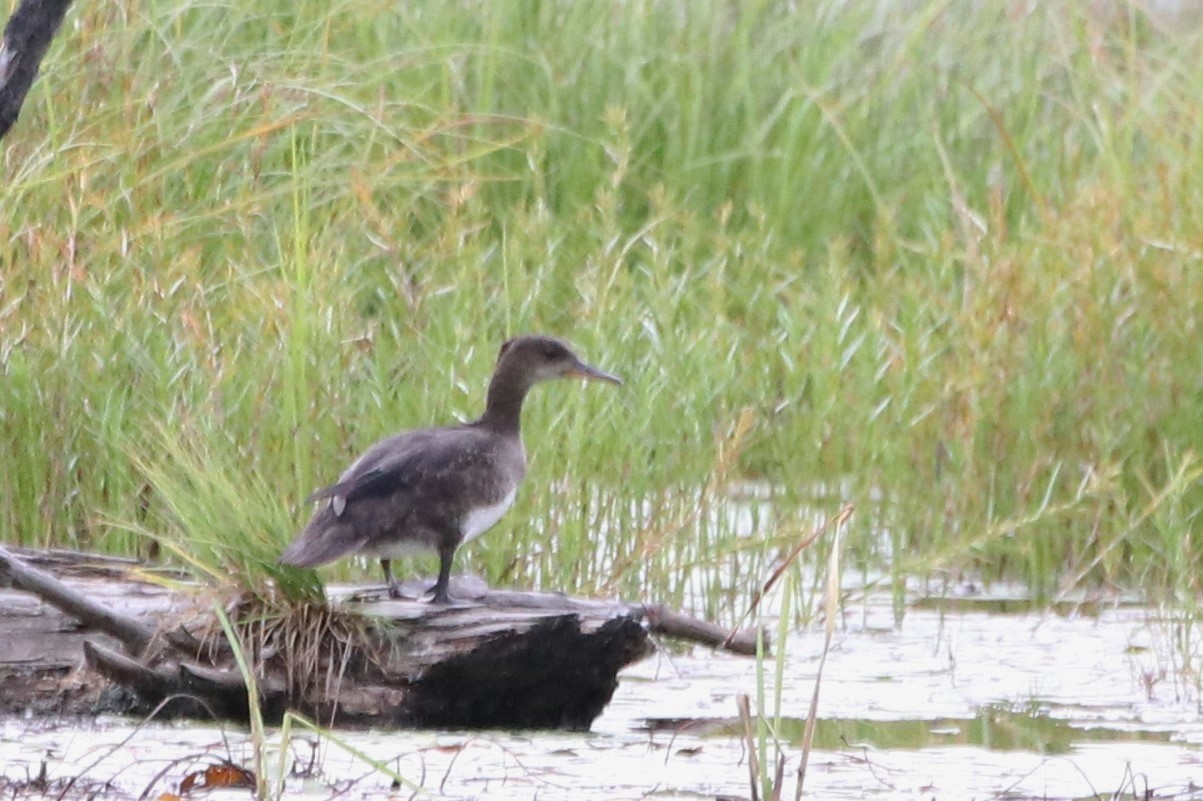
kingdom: Animalia
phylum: Chordata
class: Aves
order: Anseriformes
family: Anatidae
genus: Lophodytes
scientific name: Lophodytes cucullatus
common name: Hooded merganser
